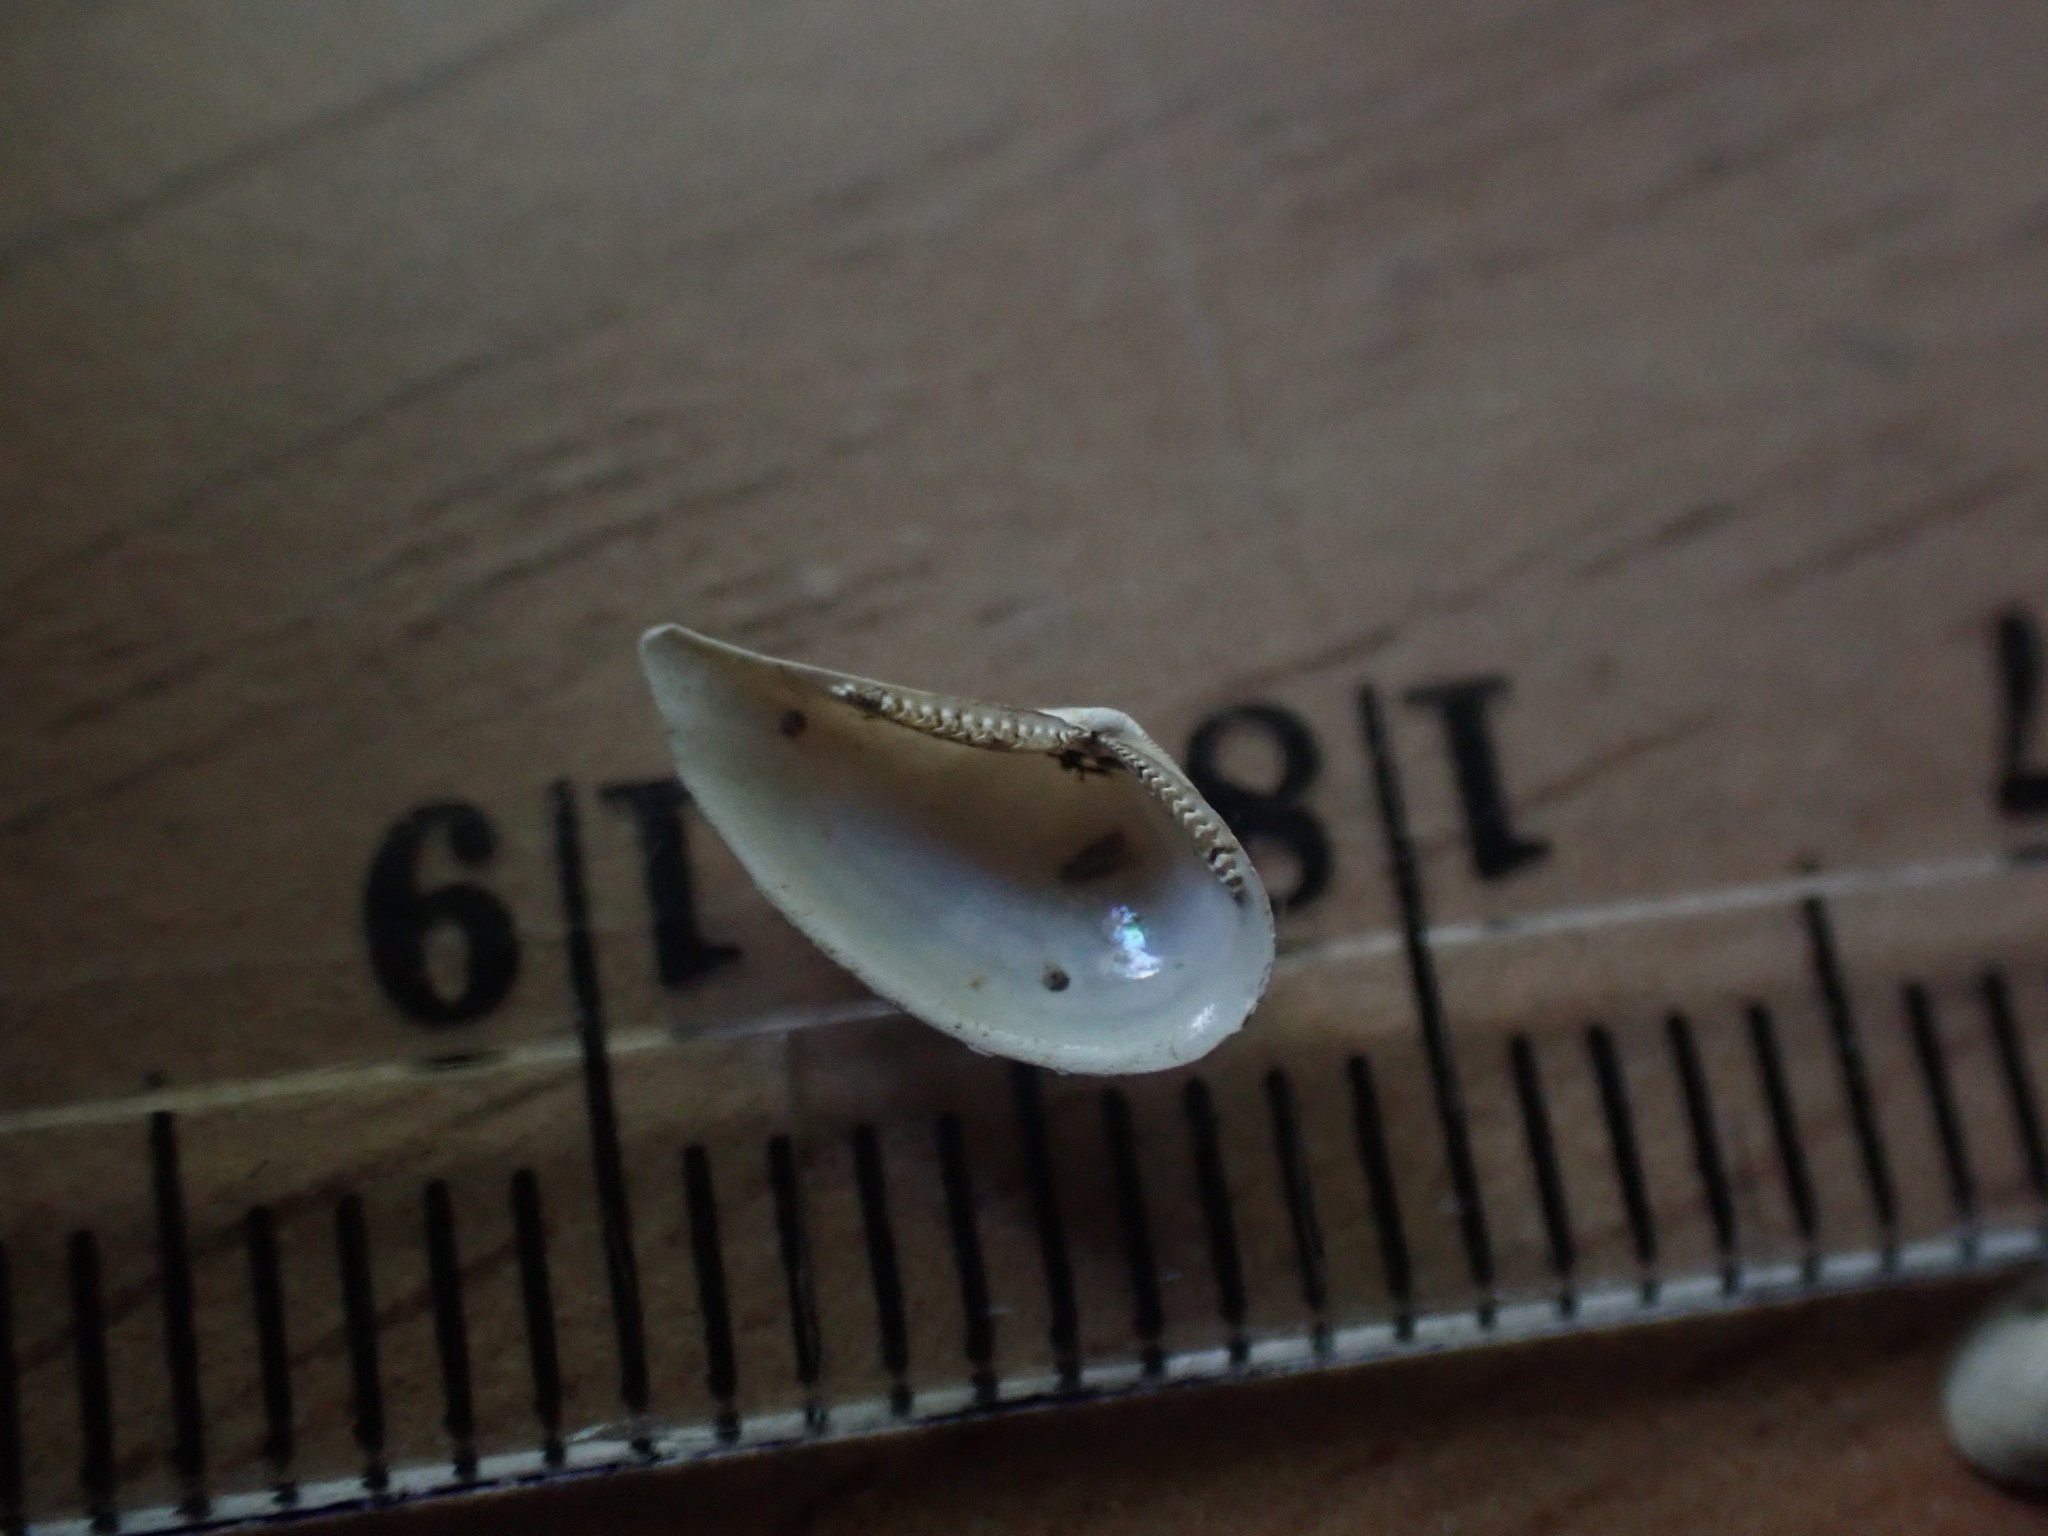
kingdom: Animalia
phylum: Mollusca
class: Bivalvia
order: Nuculanida
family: Nuculanidae
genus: Saccella
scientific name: Saccella maxwelli
